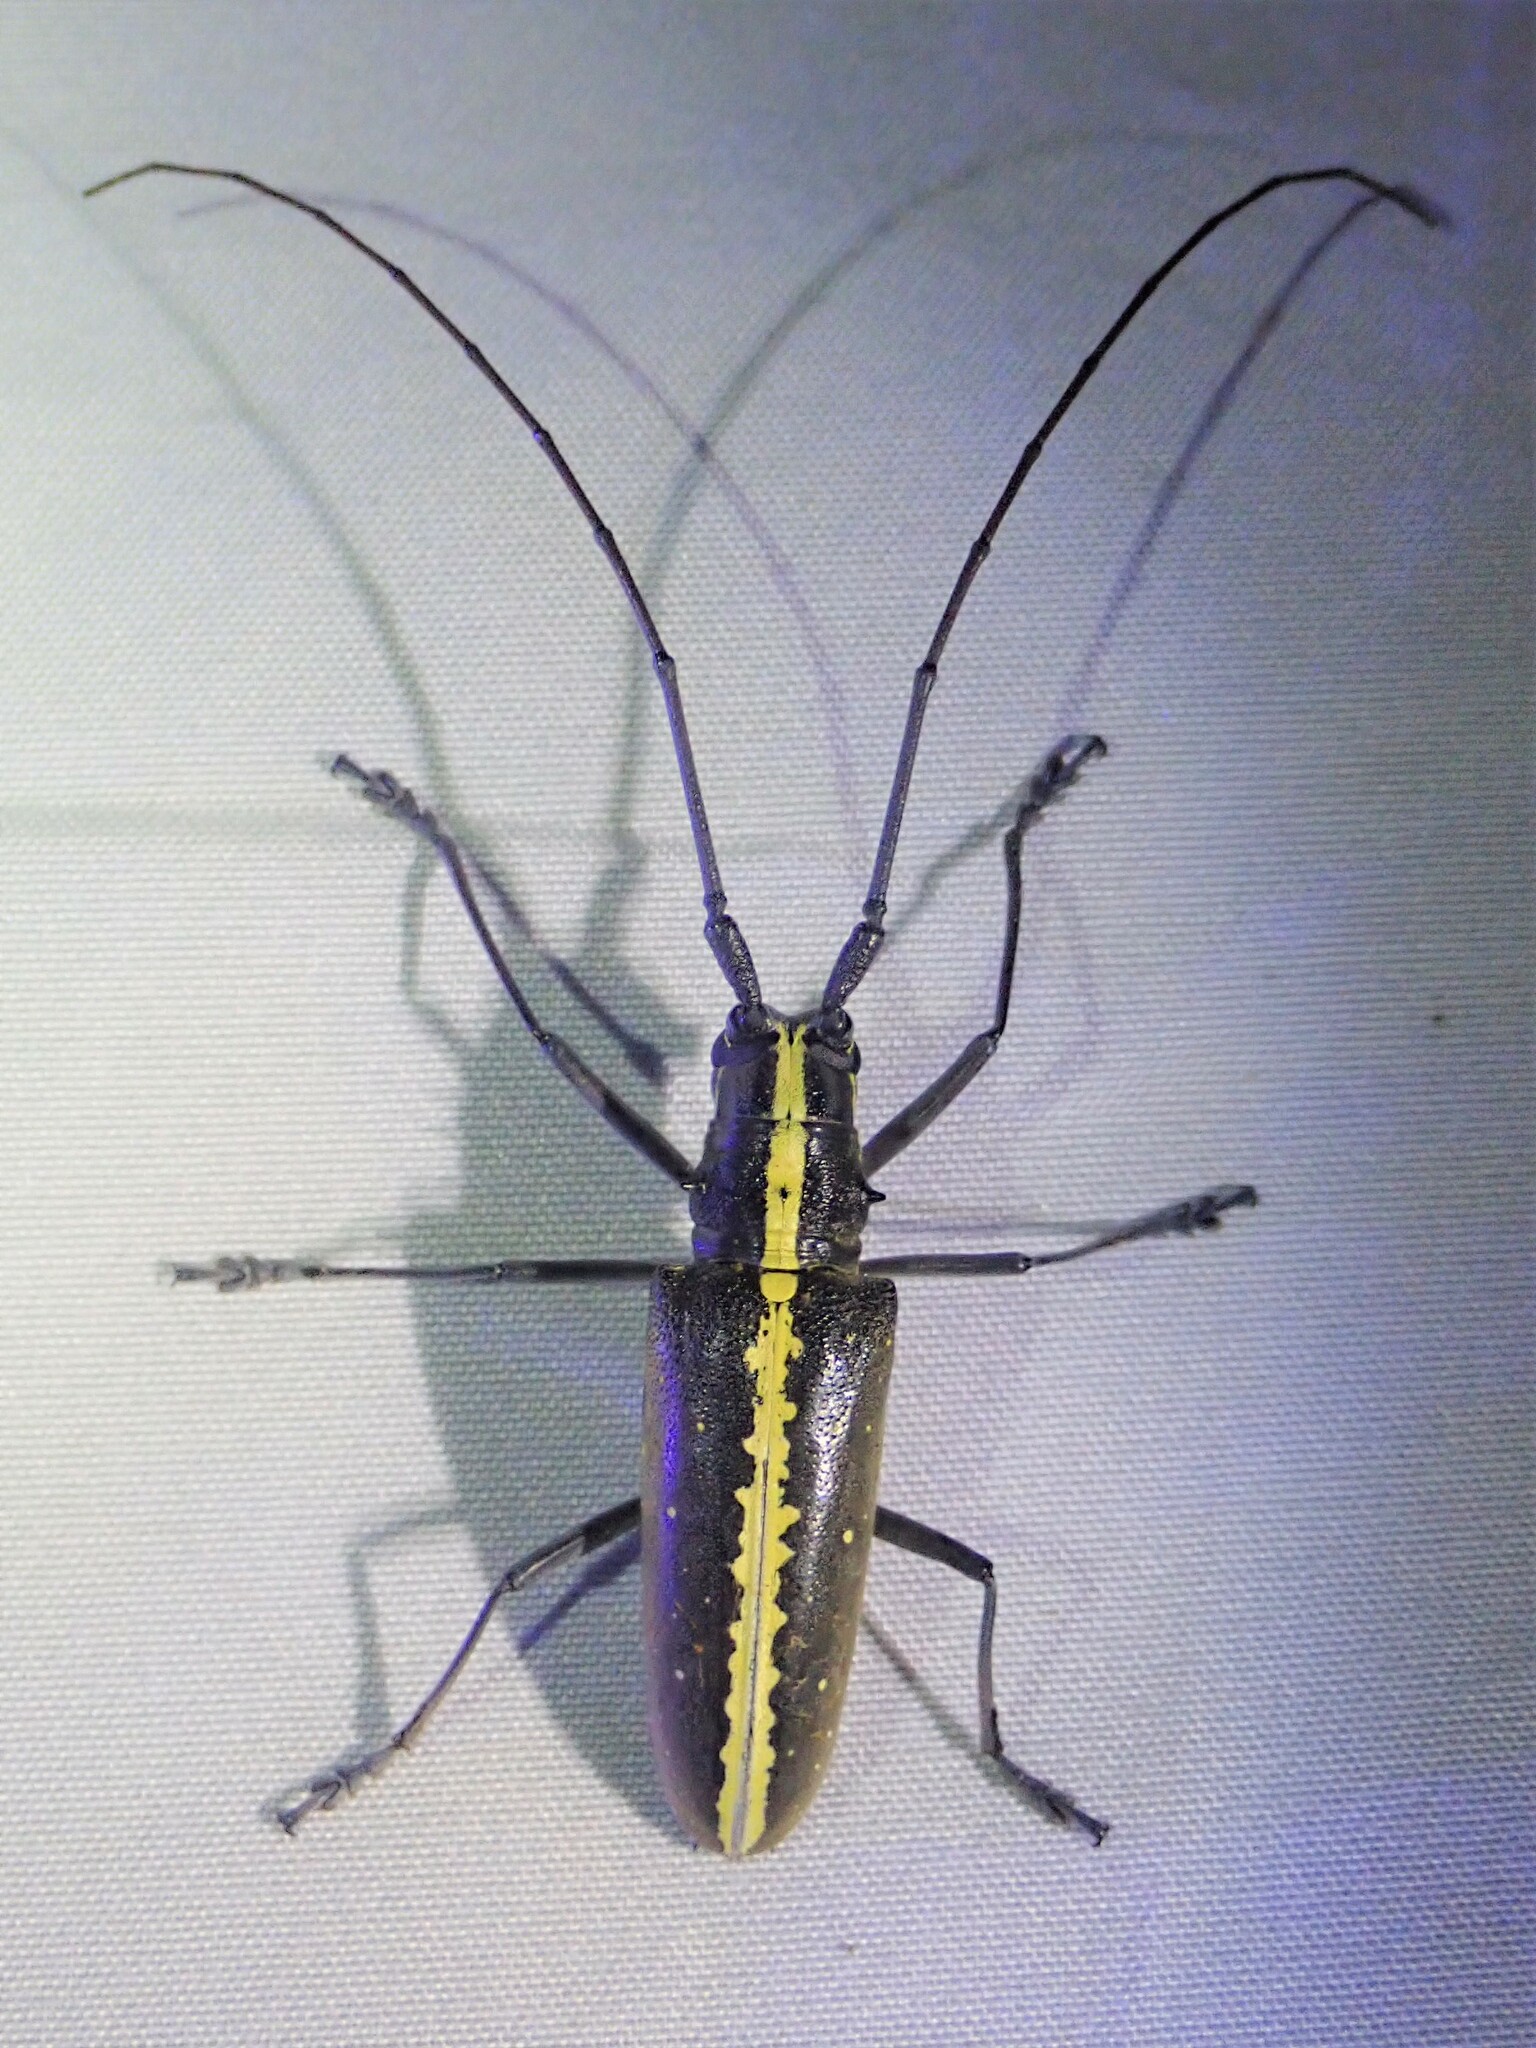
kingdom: Animalia
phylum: Arthropoda
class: Insecta
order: Coleoptera
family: Cerambycidae
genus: Taeniotes
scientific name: Taeniotes scalatus
